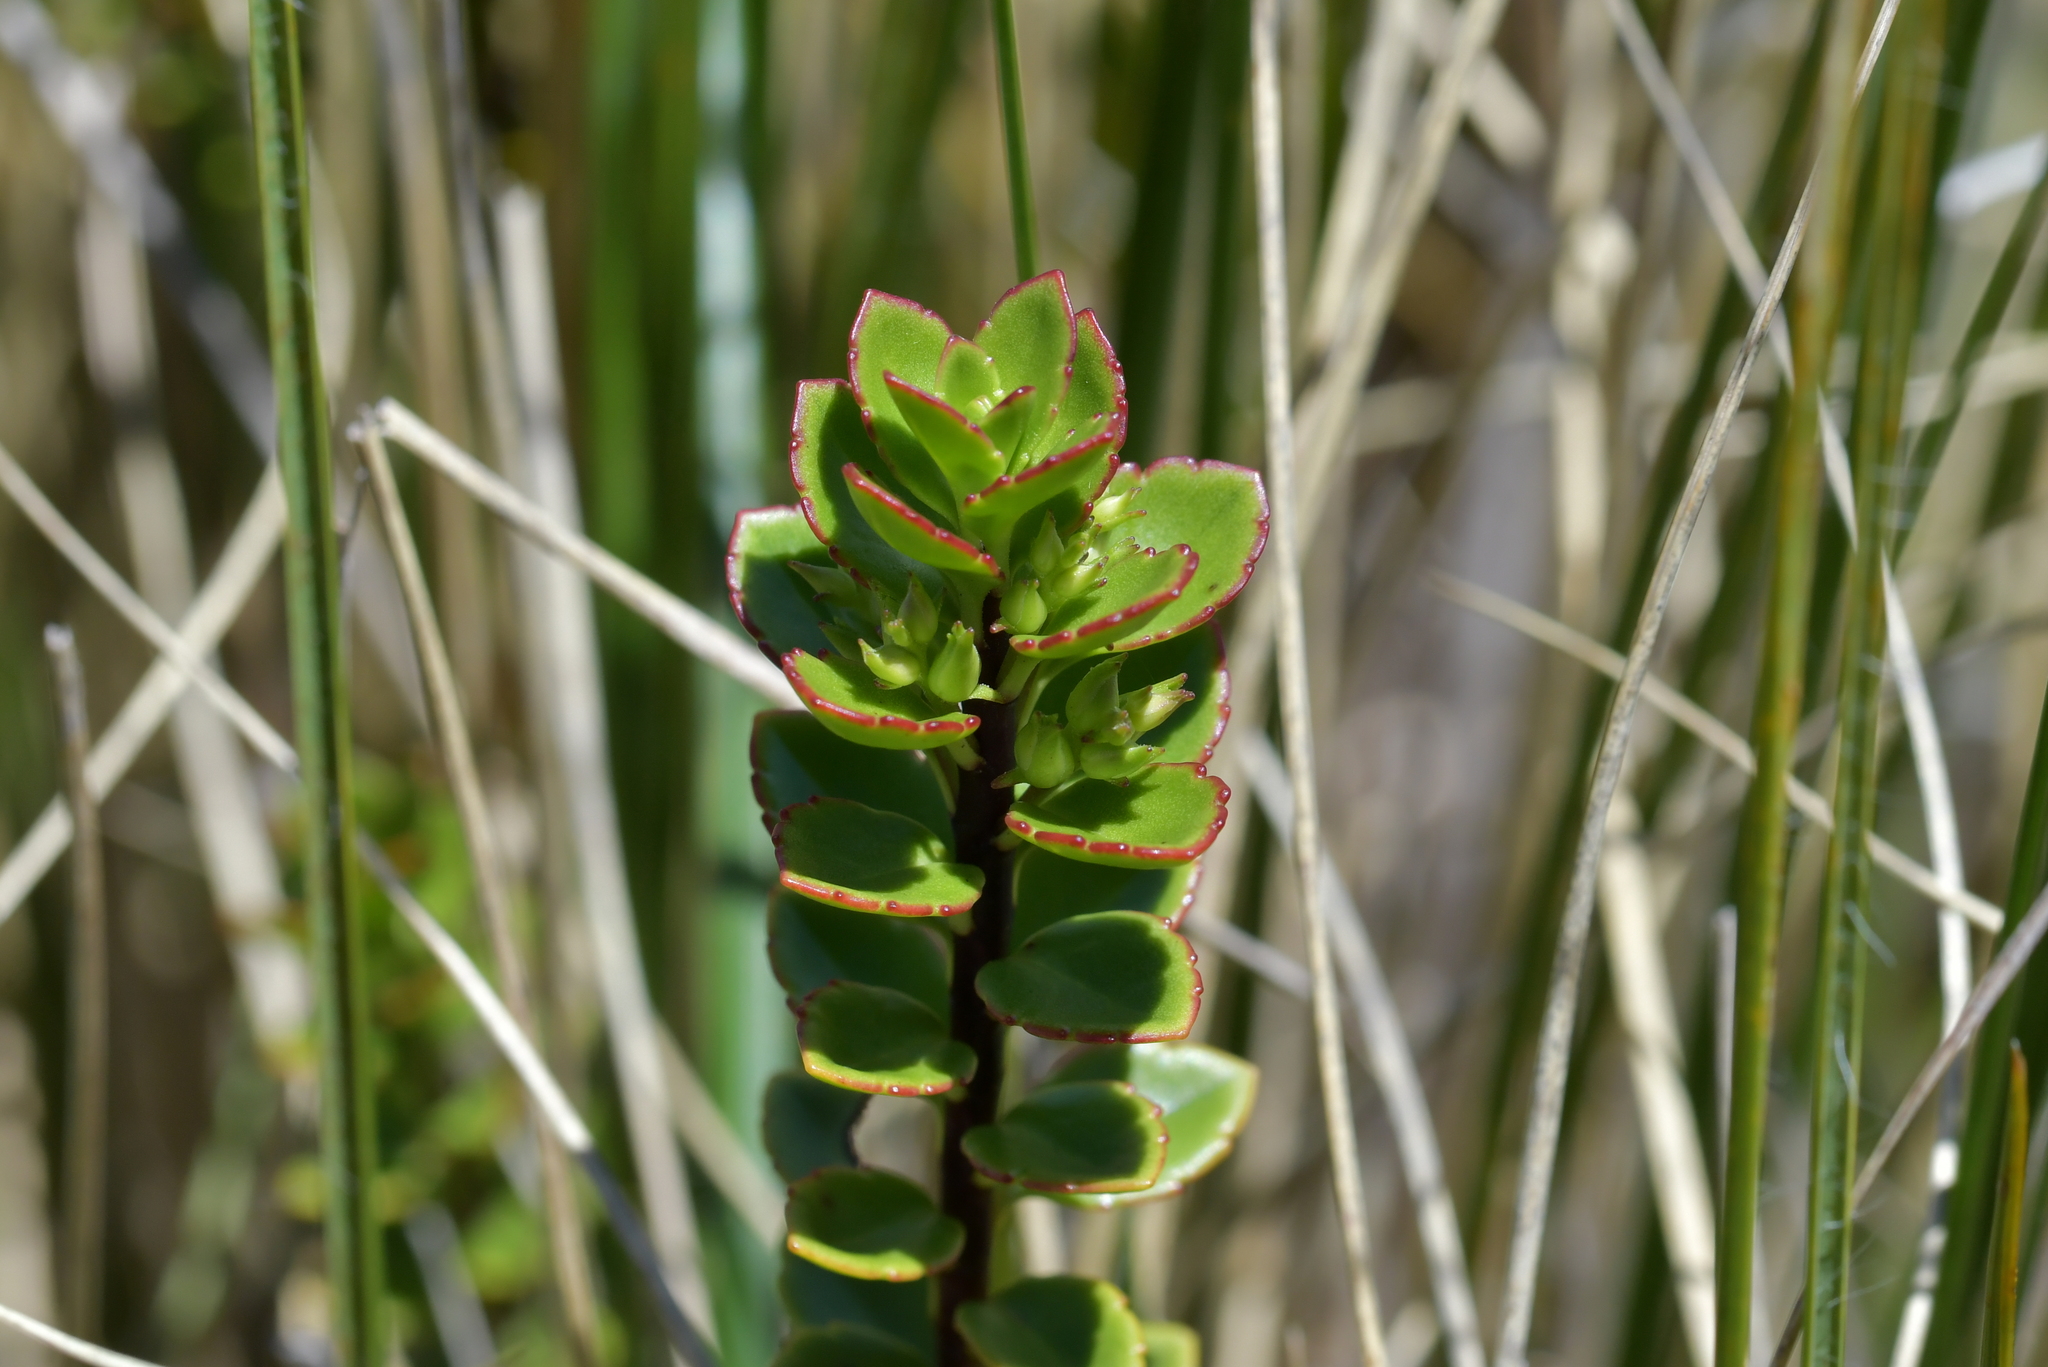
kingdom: Plantae
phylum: Tracheophyta
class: Magnoliopsida
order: Lamiales
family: Plantaginaceae
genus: Veronica
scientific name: Veronica macrantha
